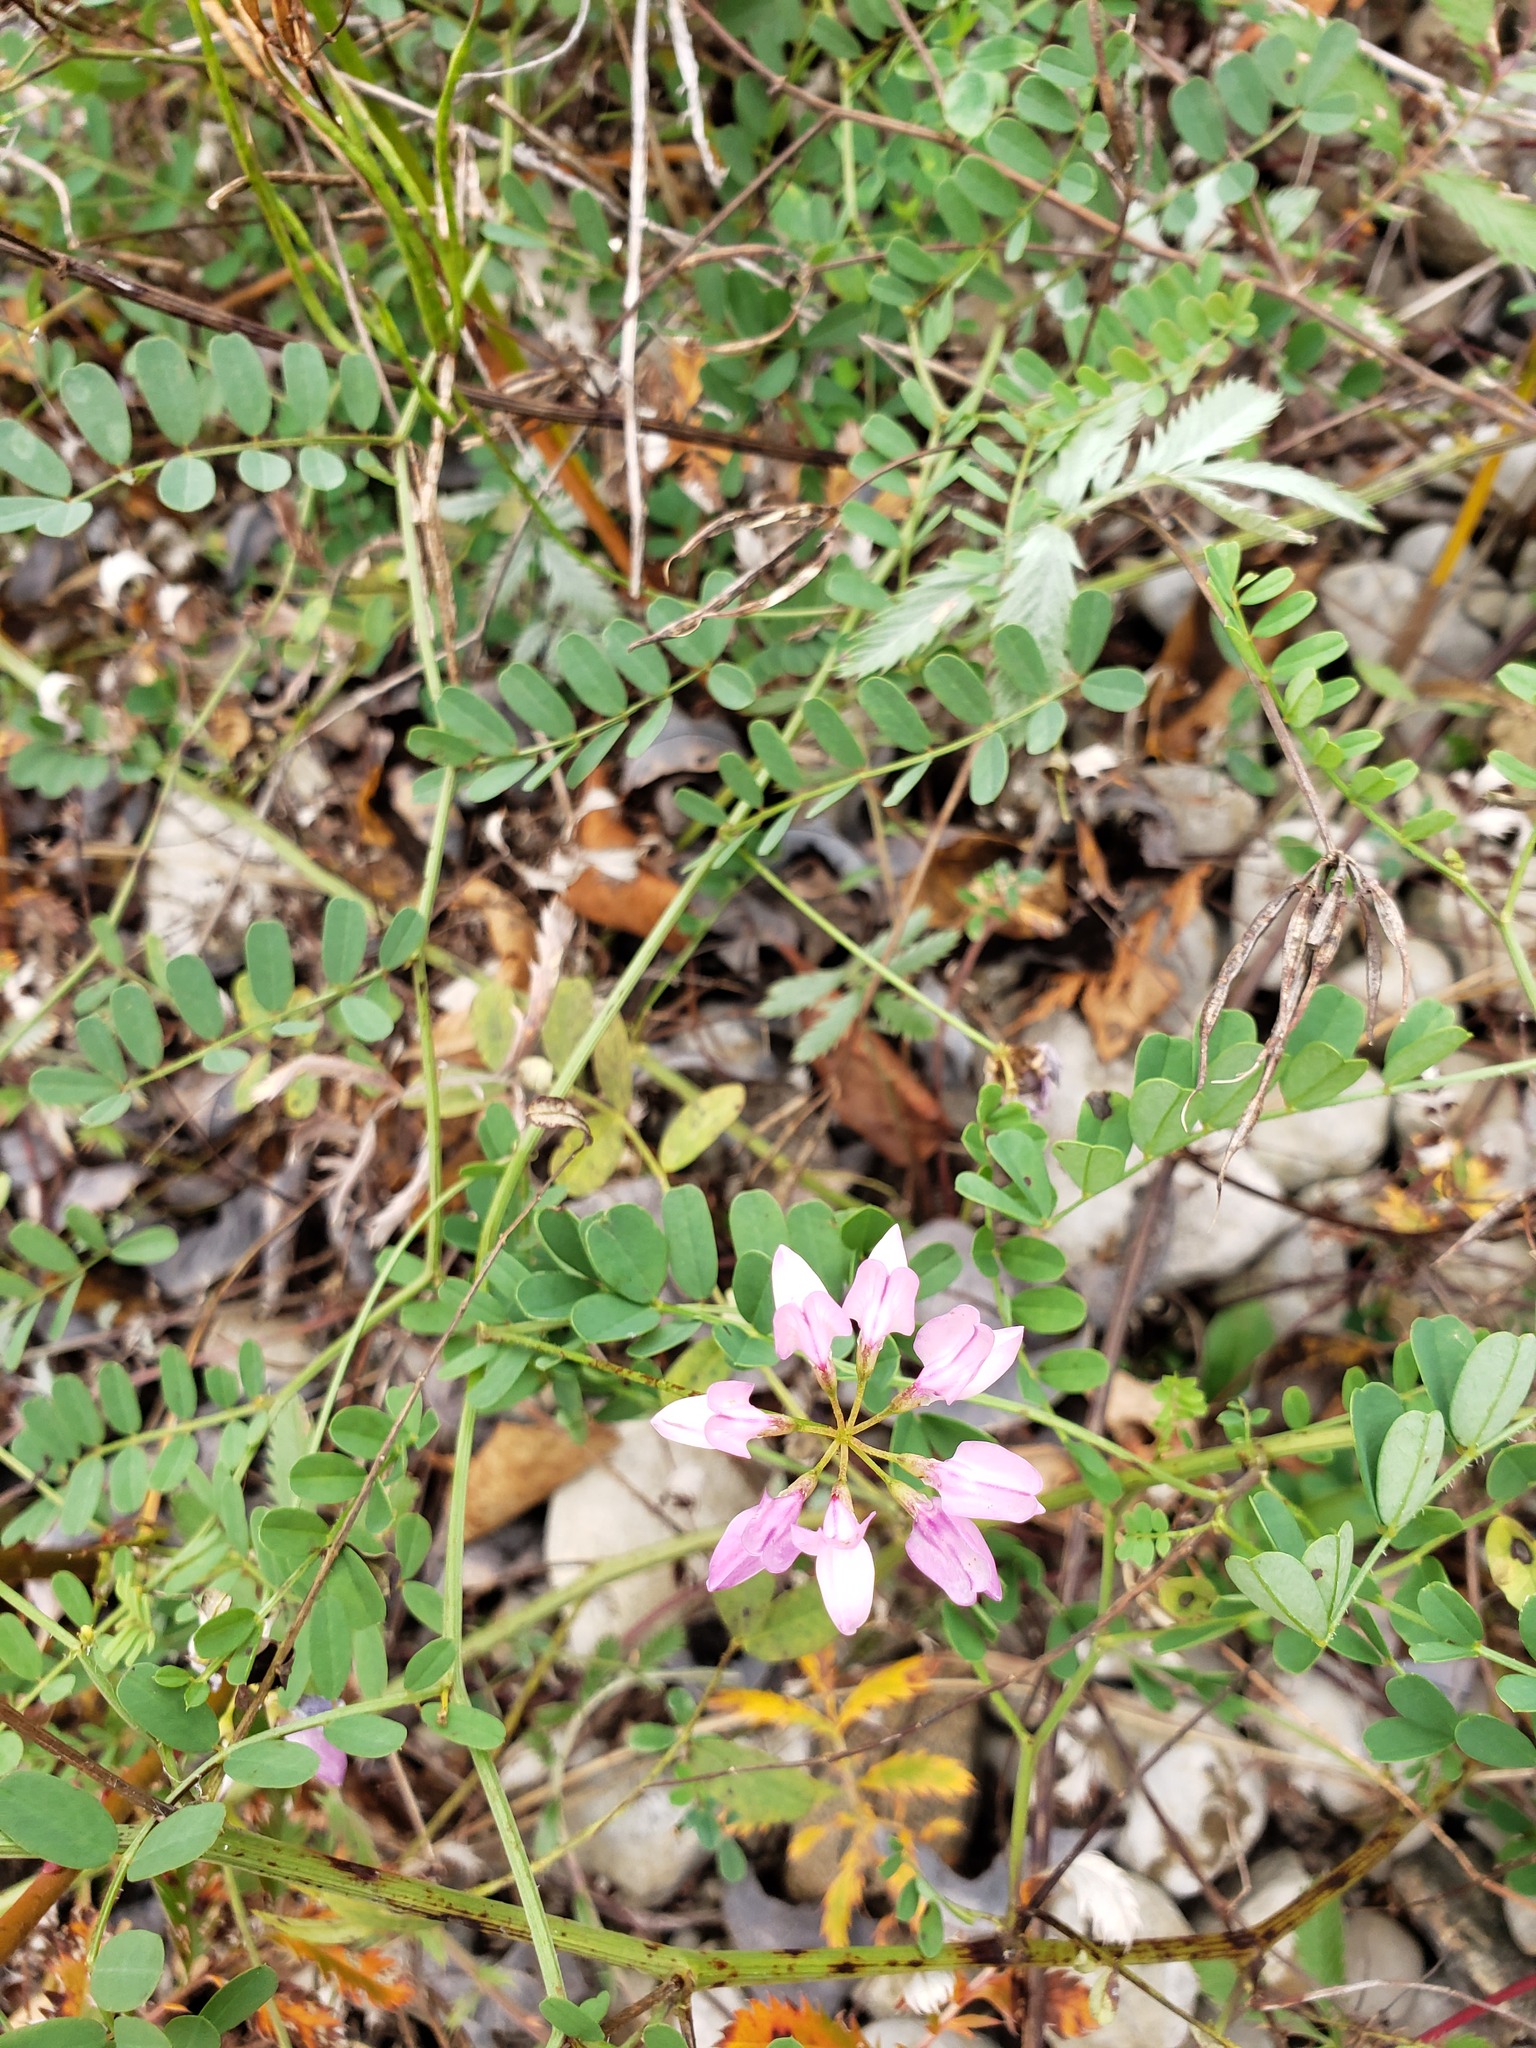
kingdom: Plantae
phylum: Tracheophyta
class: Magnoliopsida
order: Fabales
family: Fabaceae
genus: Coronilla
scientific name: Coronilla varia
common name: Crownvetch
